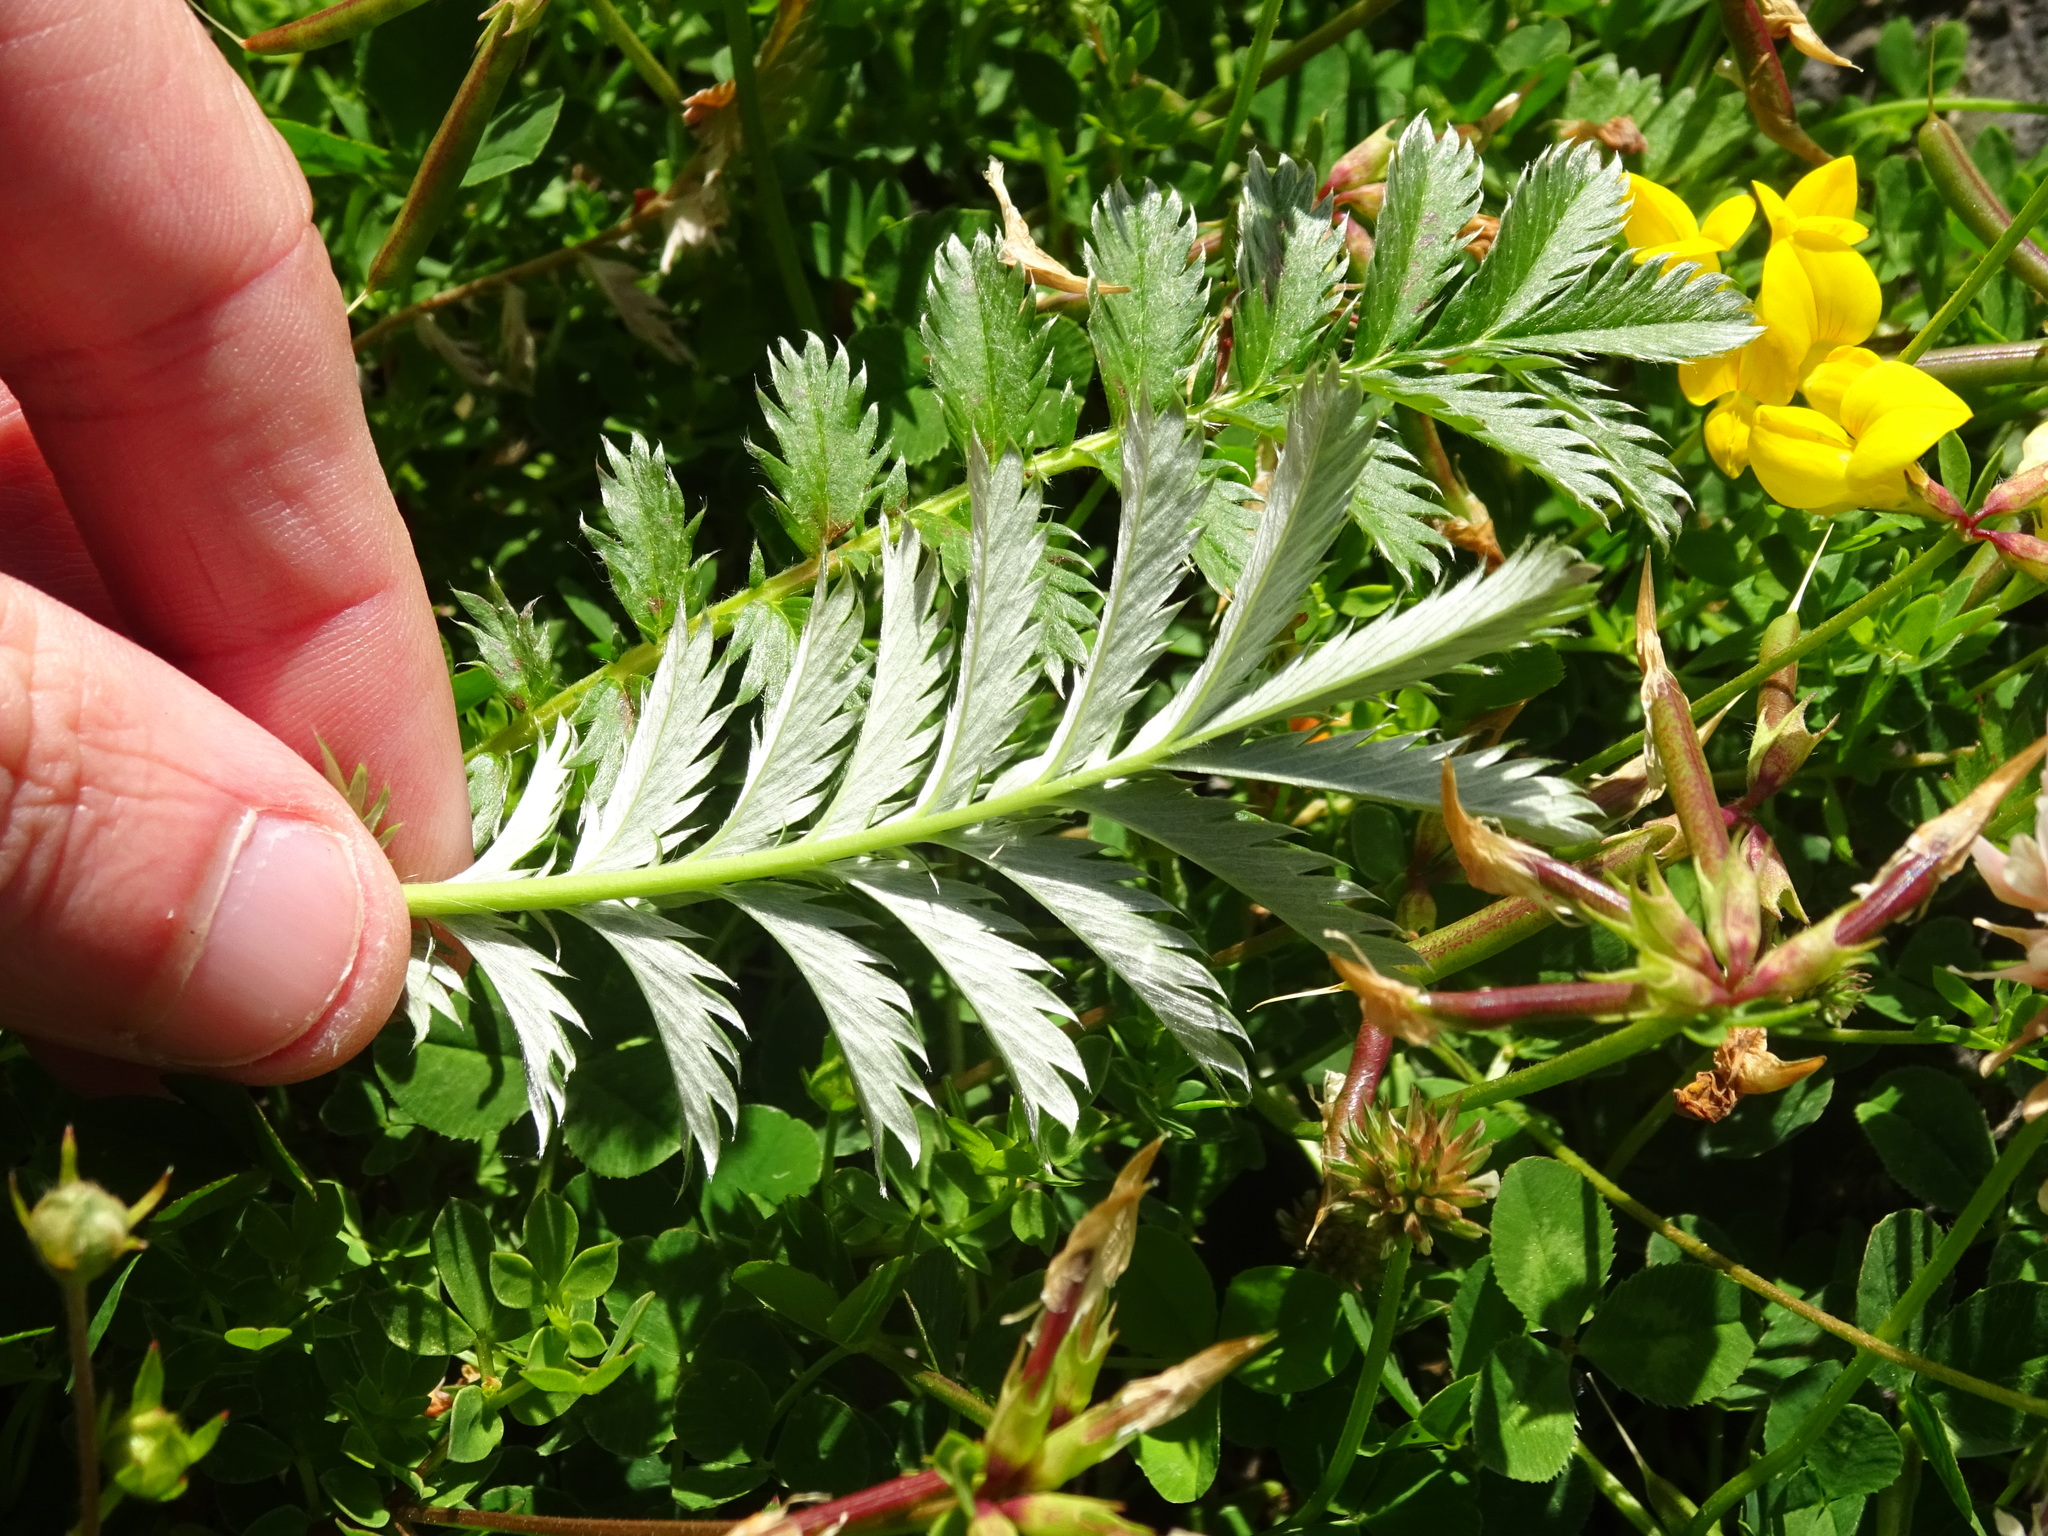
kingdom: Plantae
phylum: Tracheophyta
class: Magnoliopsida
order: Rosales
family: Rosaceae
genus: Argentina
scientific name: Argentina anserina
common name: Common silverweed
